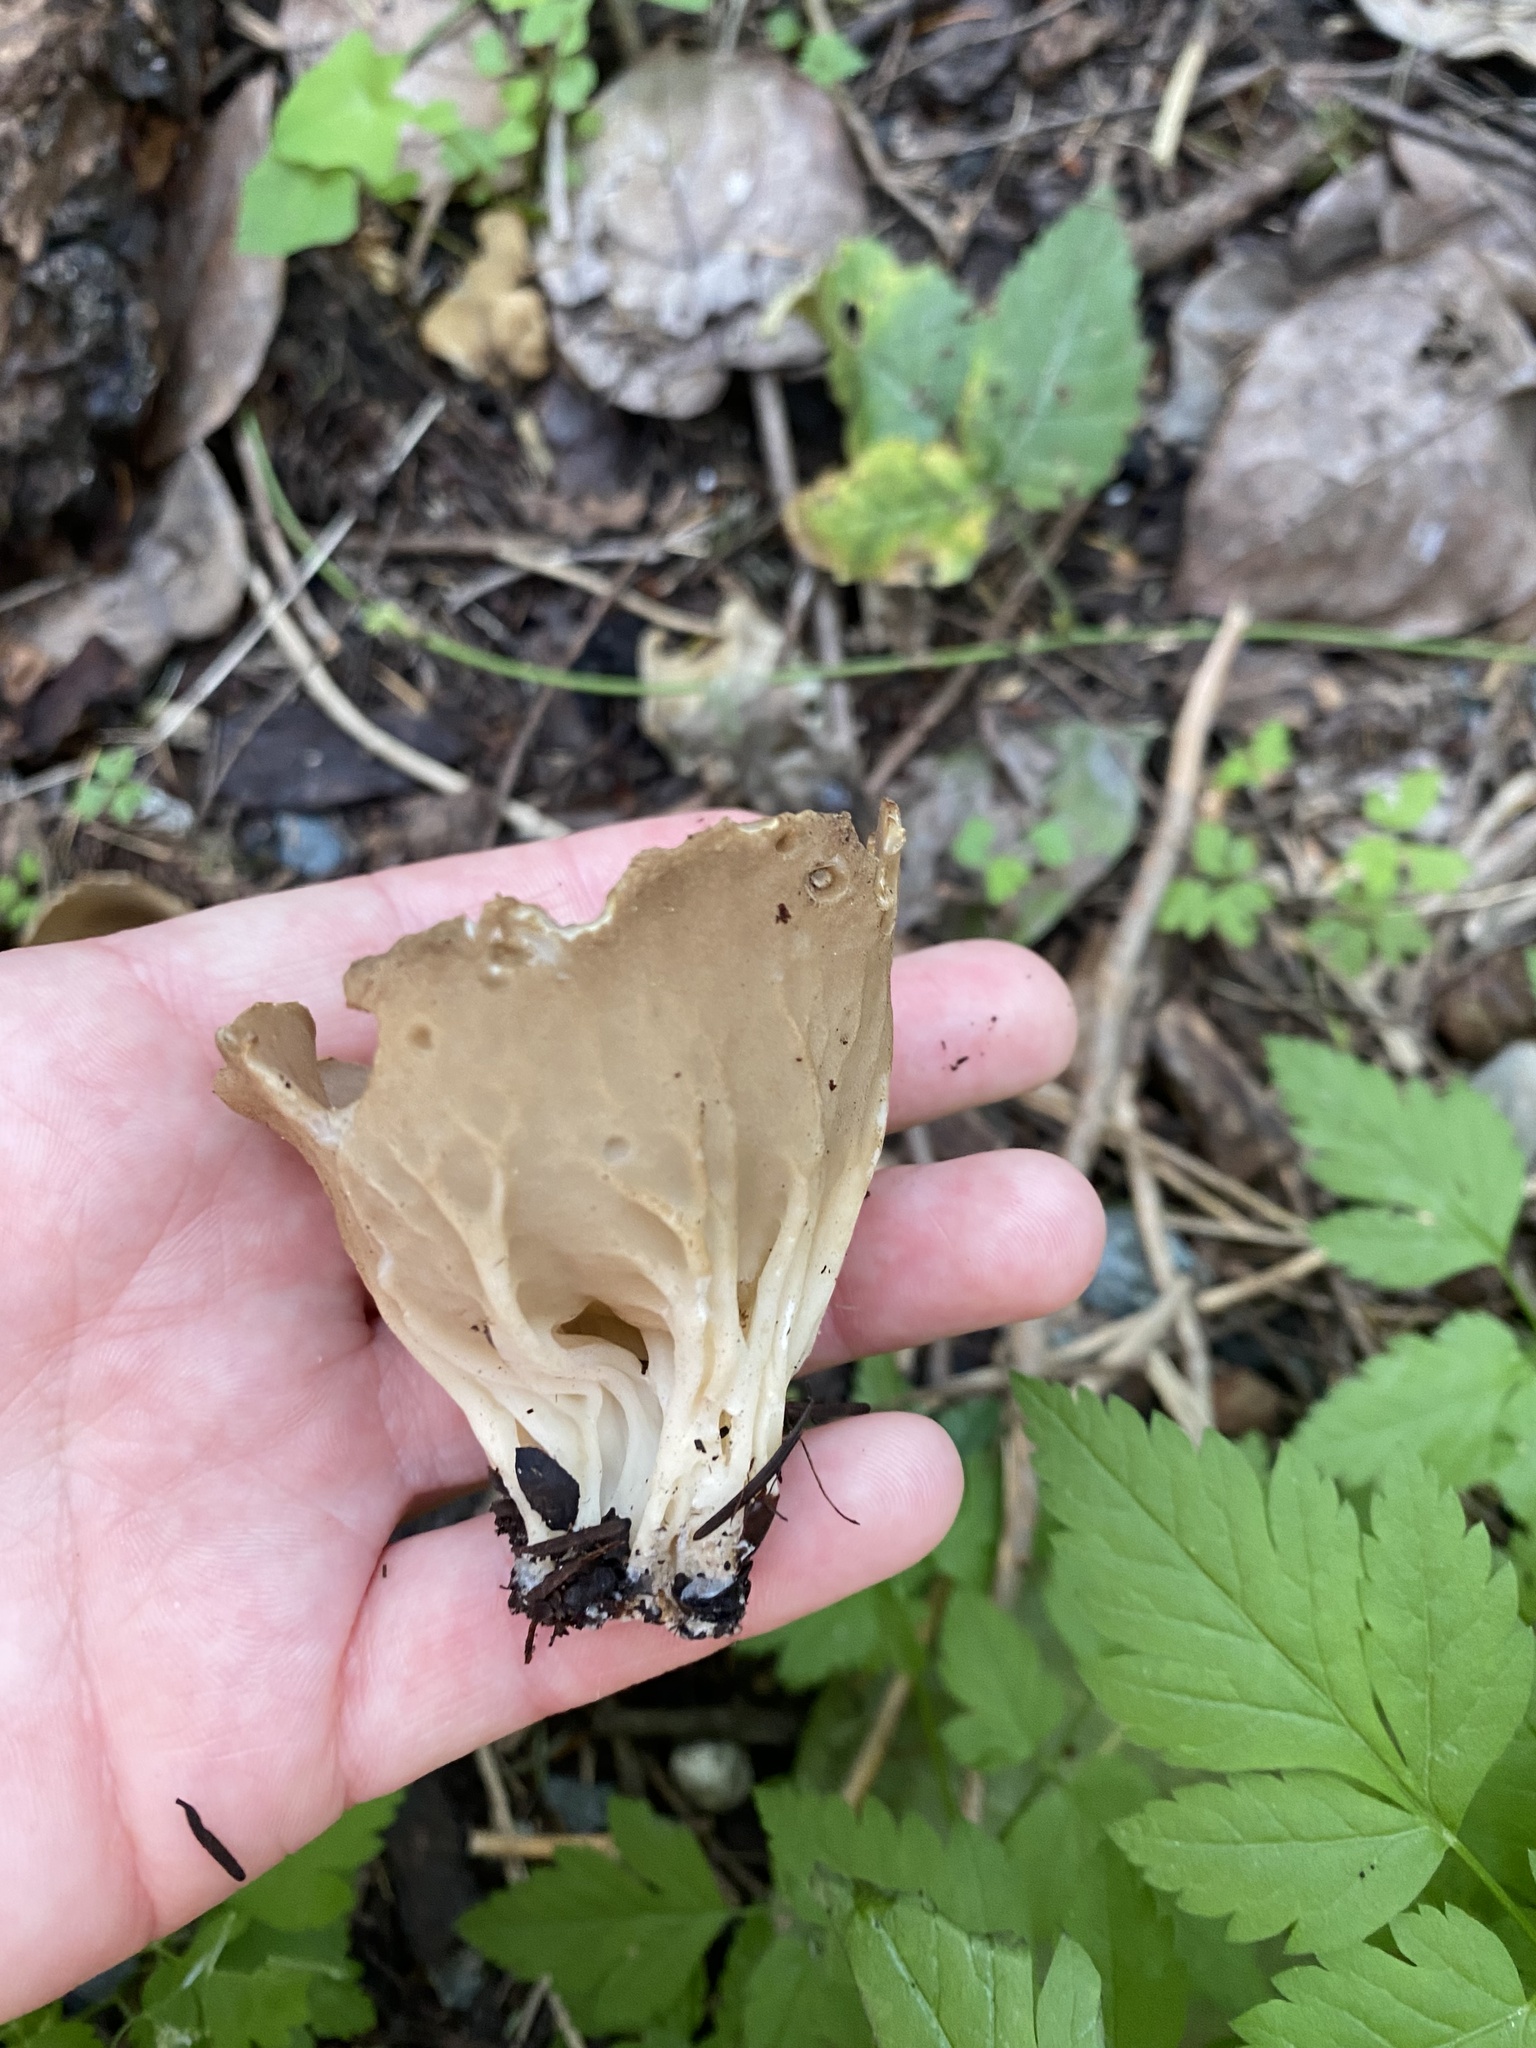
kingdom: Fungi
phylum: Ascomycota
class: Pezizomycetes
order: Pezizales
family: Helvellaceae
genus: Helvella
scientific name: Helvella acetabulum
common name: Vinegar cup
